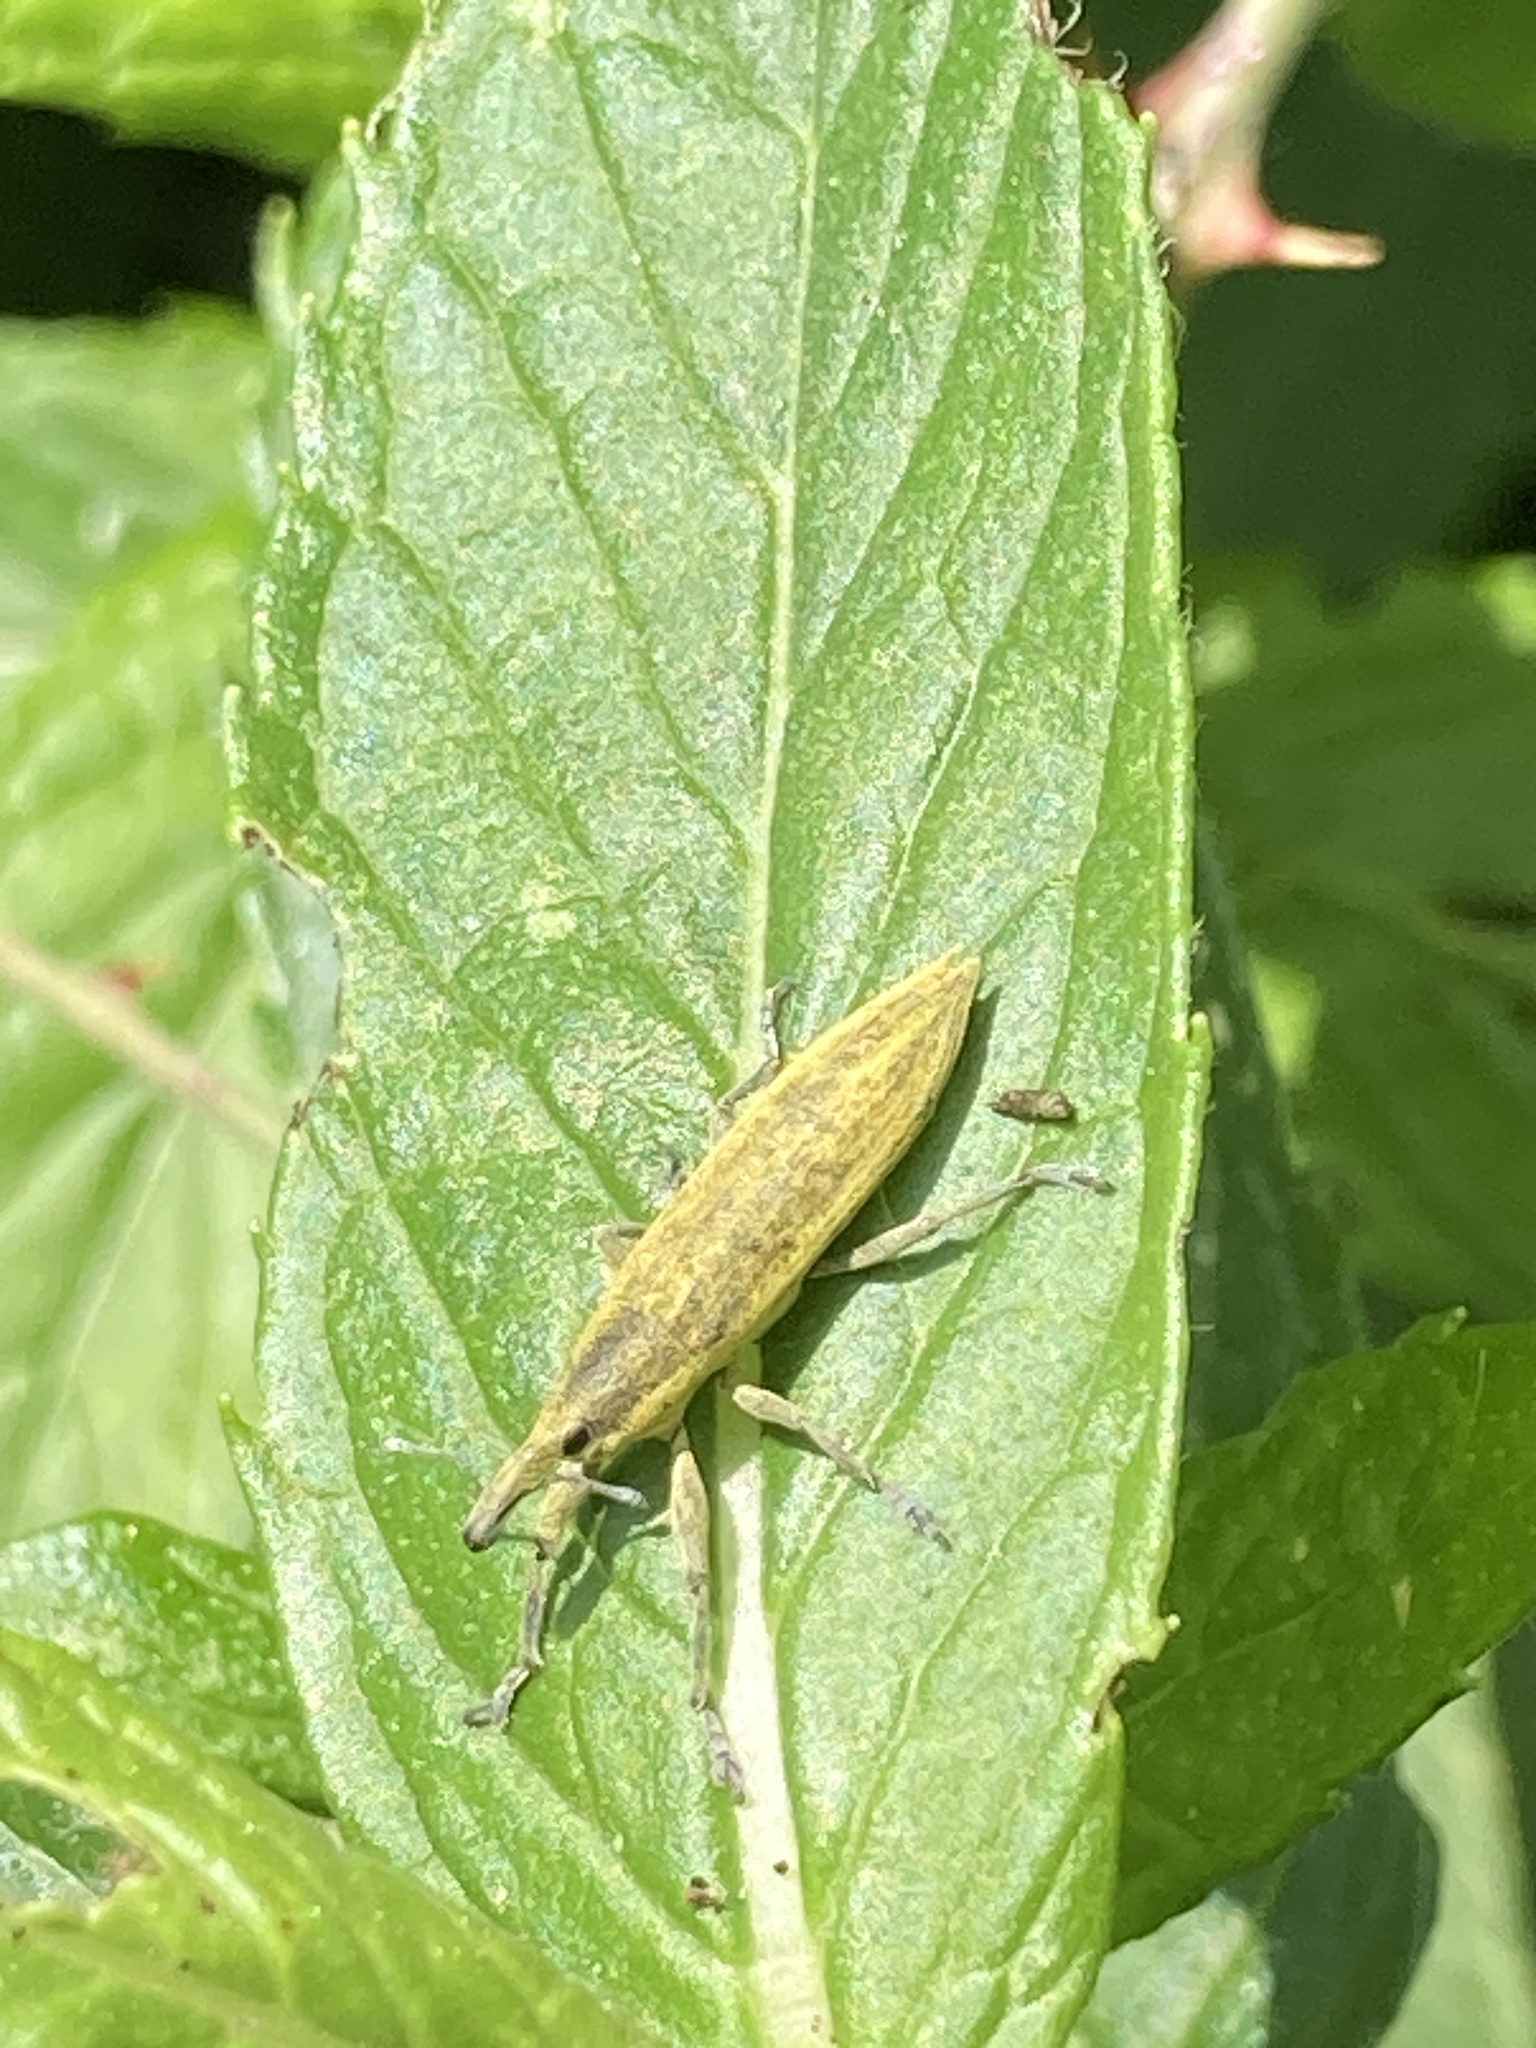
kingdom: Animalia
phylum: Arthropoda
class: Insecta
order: Coleoptera
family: Curculionidae
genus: Lixus
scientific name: Lixus iridis
